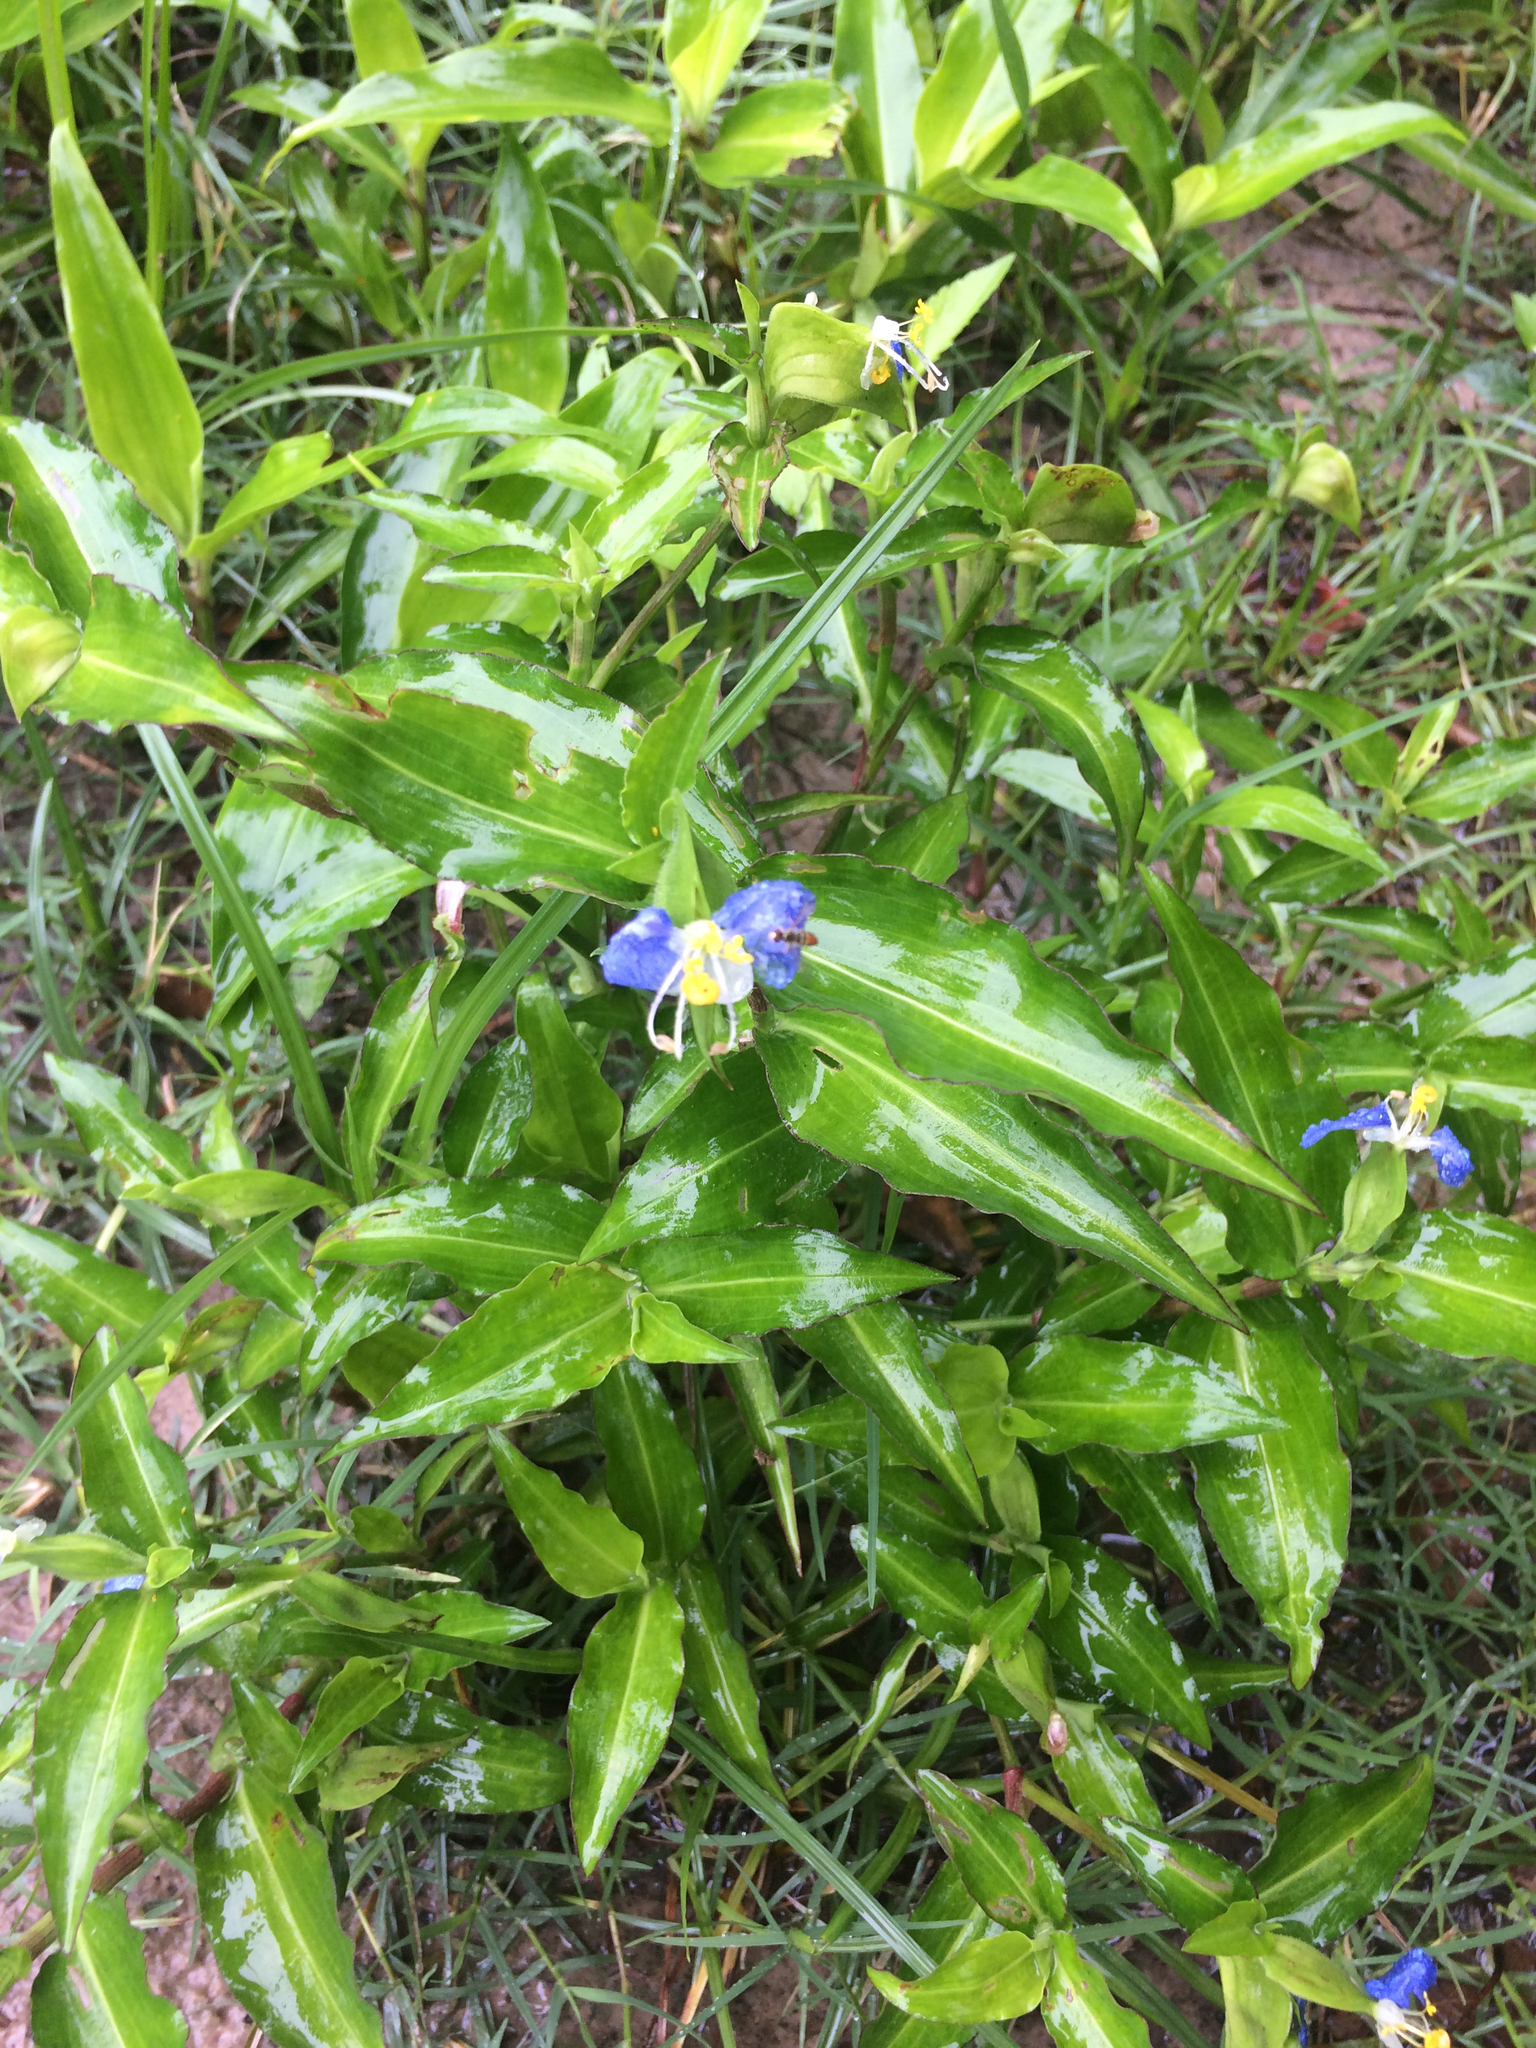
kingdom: Plantae
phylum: Tracheophyta
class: Liliopsida
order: Commelinales
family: Commelinaceae
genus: Commelina
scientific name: Commelina erecta
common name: Blousel blommetjie
